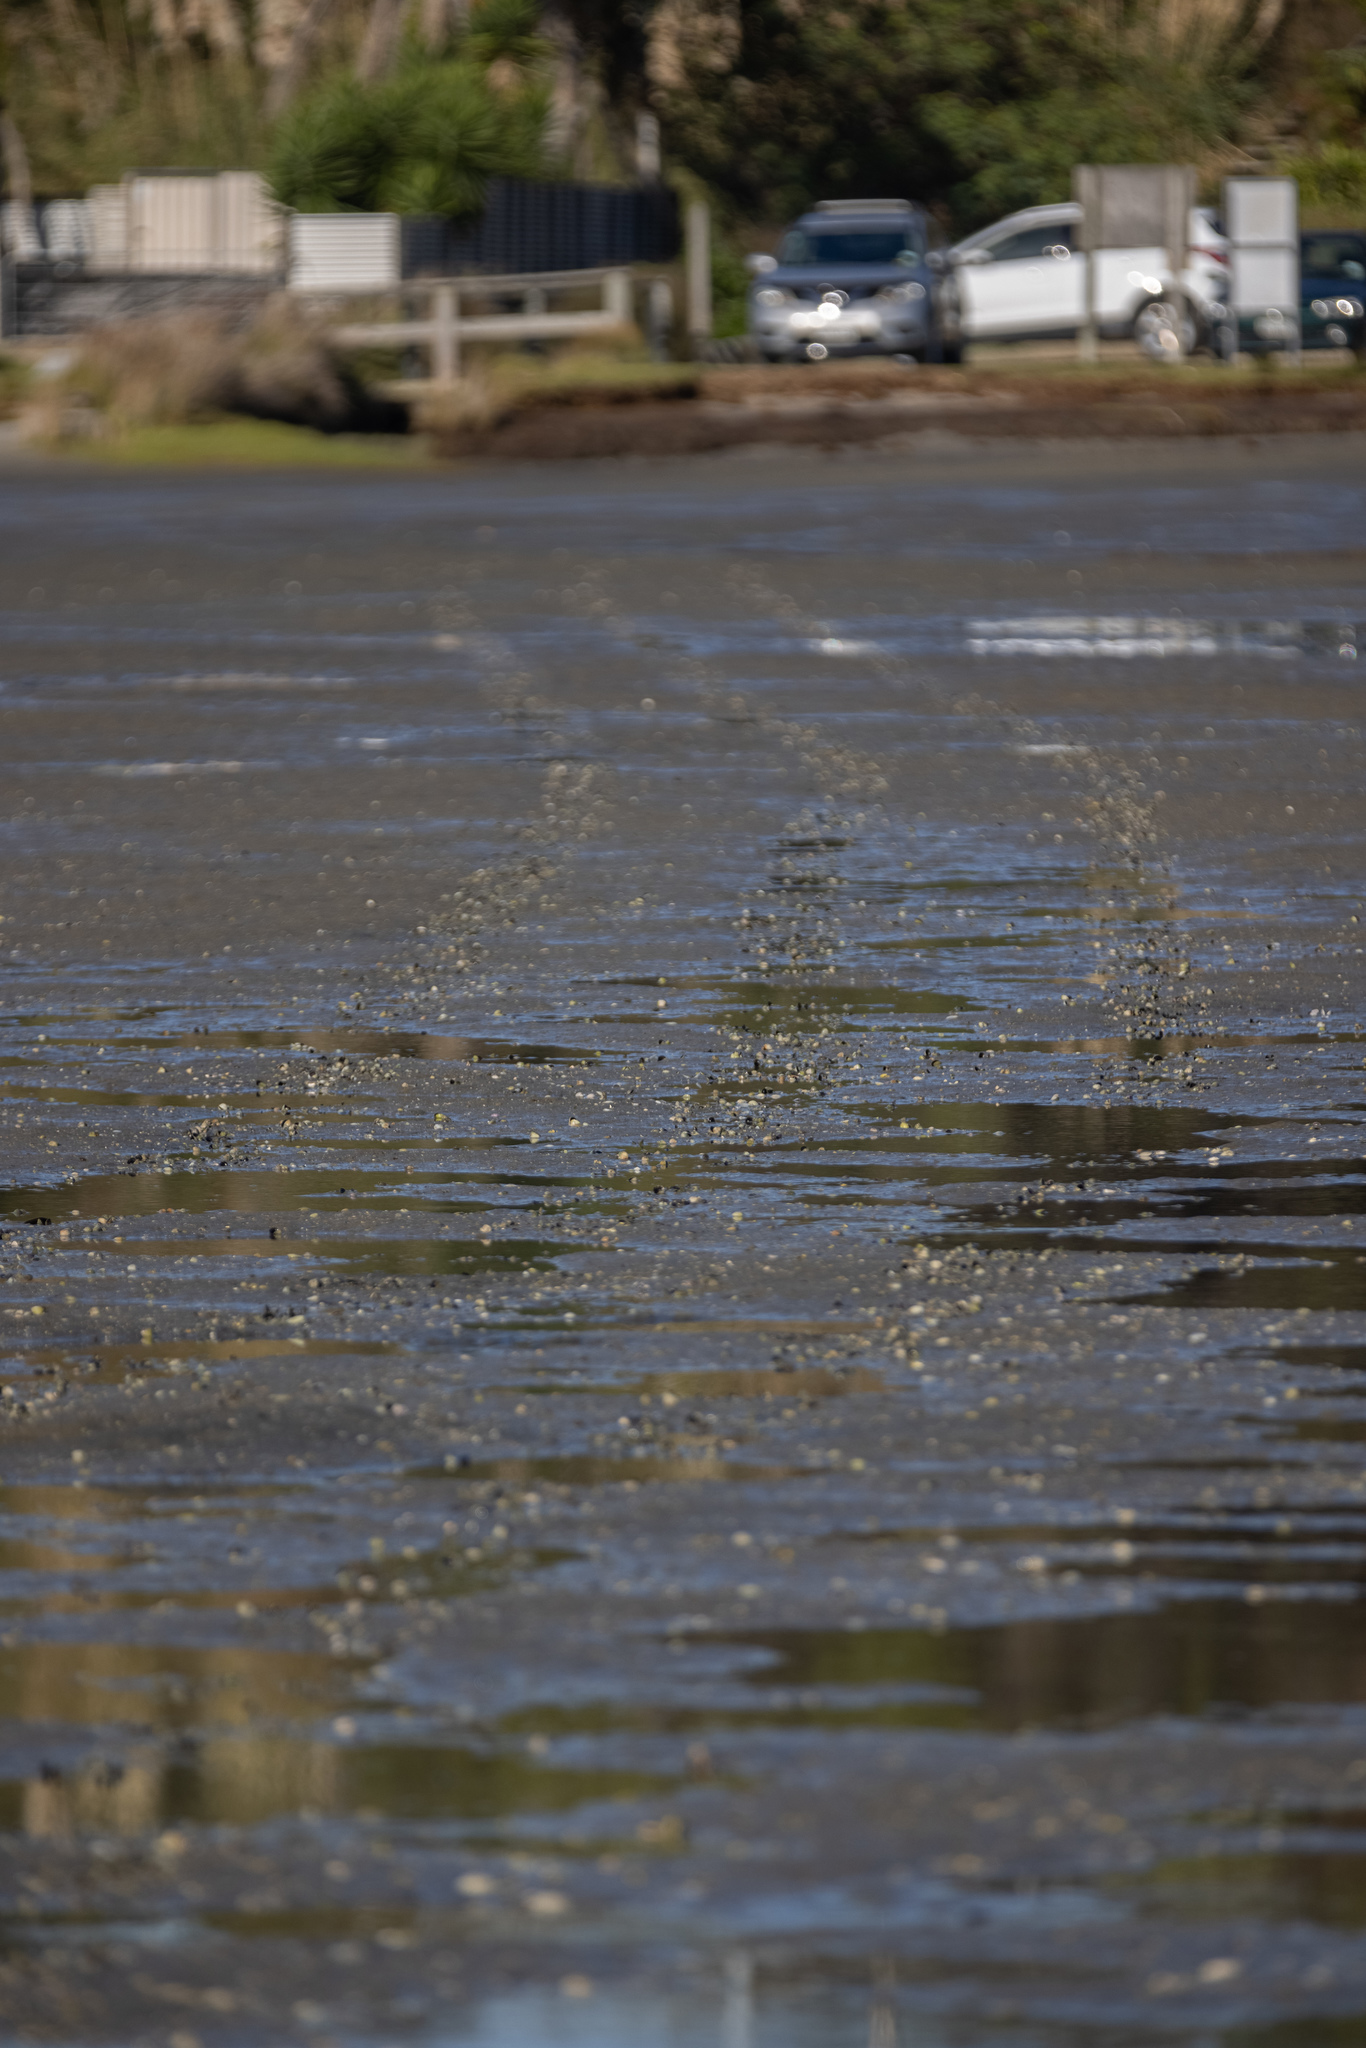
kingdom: Animalia
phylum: Mollusca
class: Bivalvia
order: Venerida
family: Veneridae
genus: Austrovenus
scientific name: Austrovenus stutchburyi
